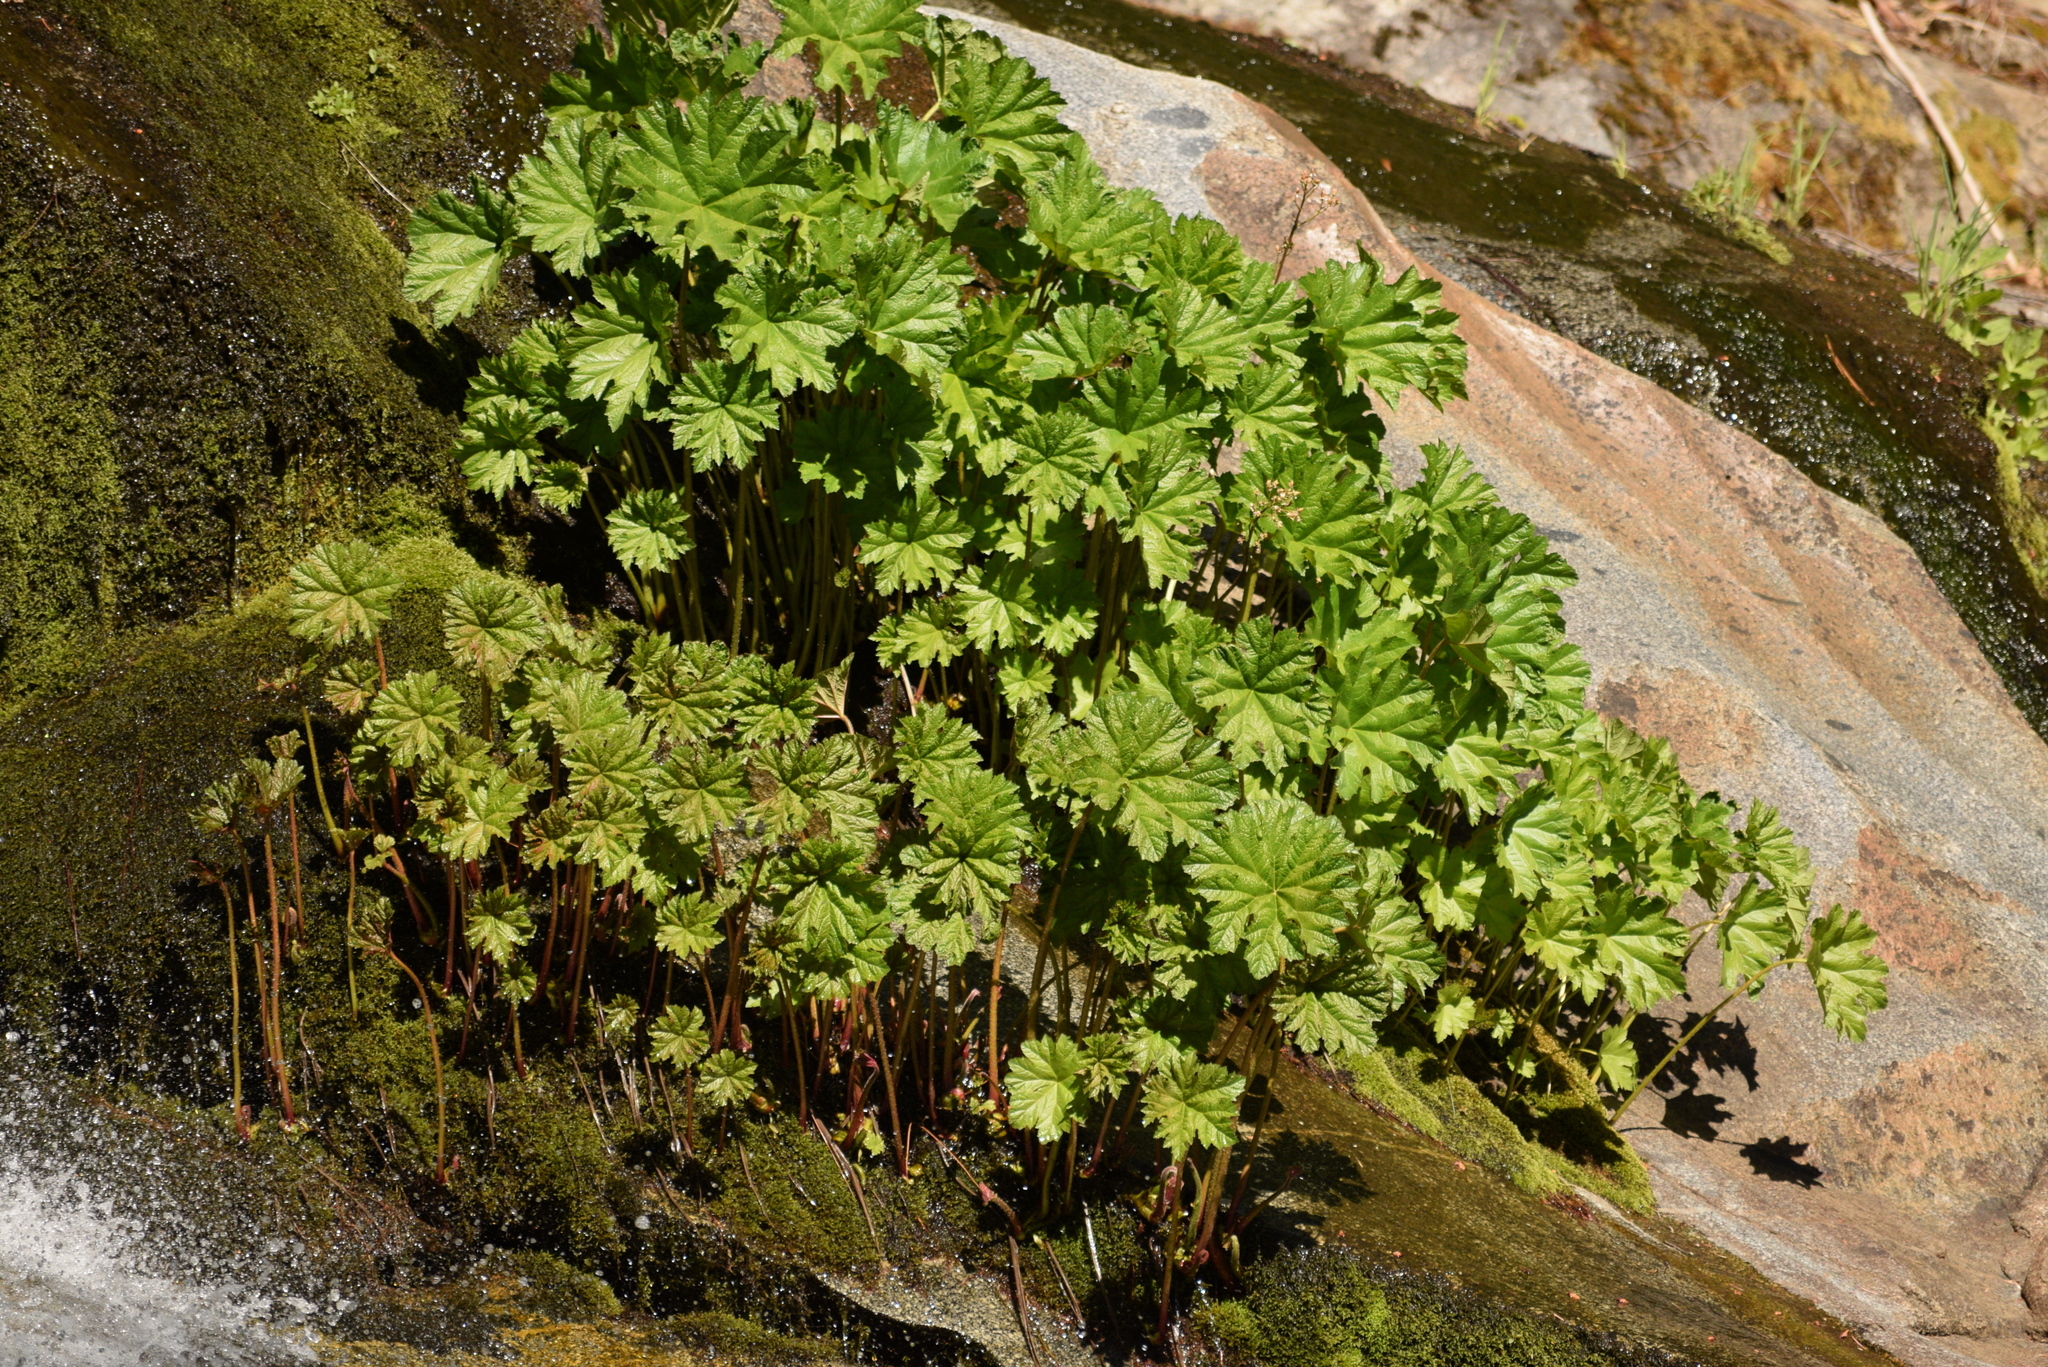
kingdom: Plantae
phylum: Tracheophyta
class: Magnoliopsida
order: Saxifragales
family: Saxifragaceae
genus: Darmera
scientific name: Darmera peltata
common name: Indian-rhubarb
